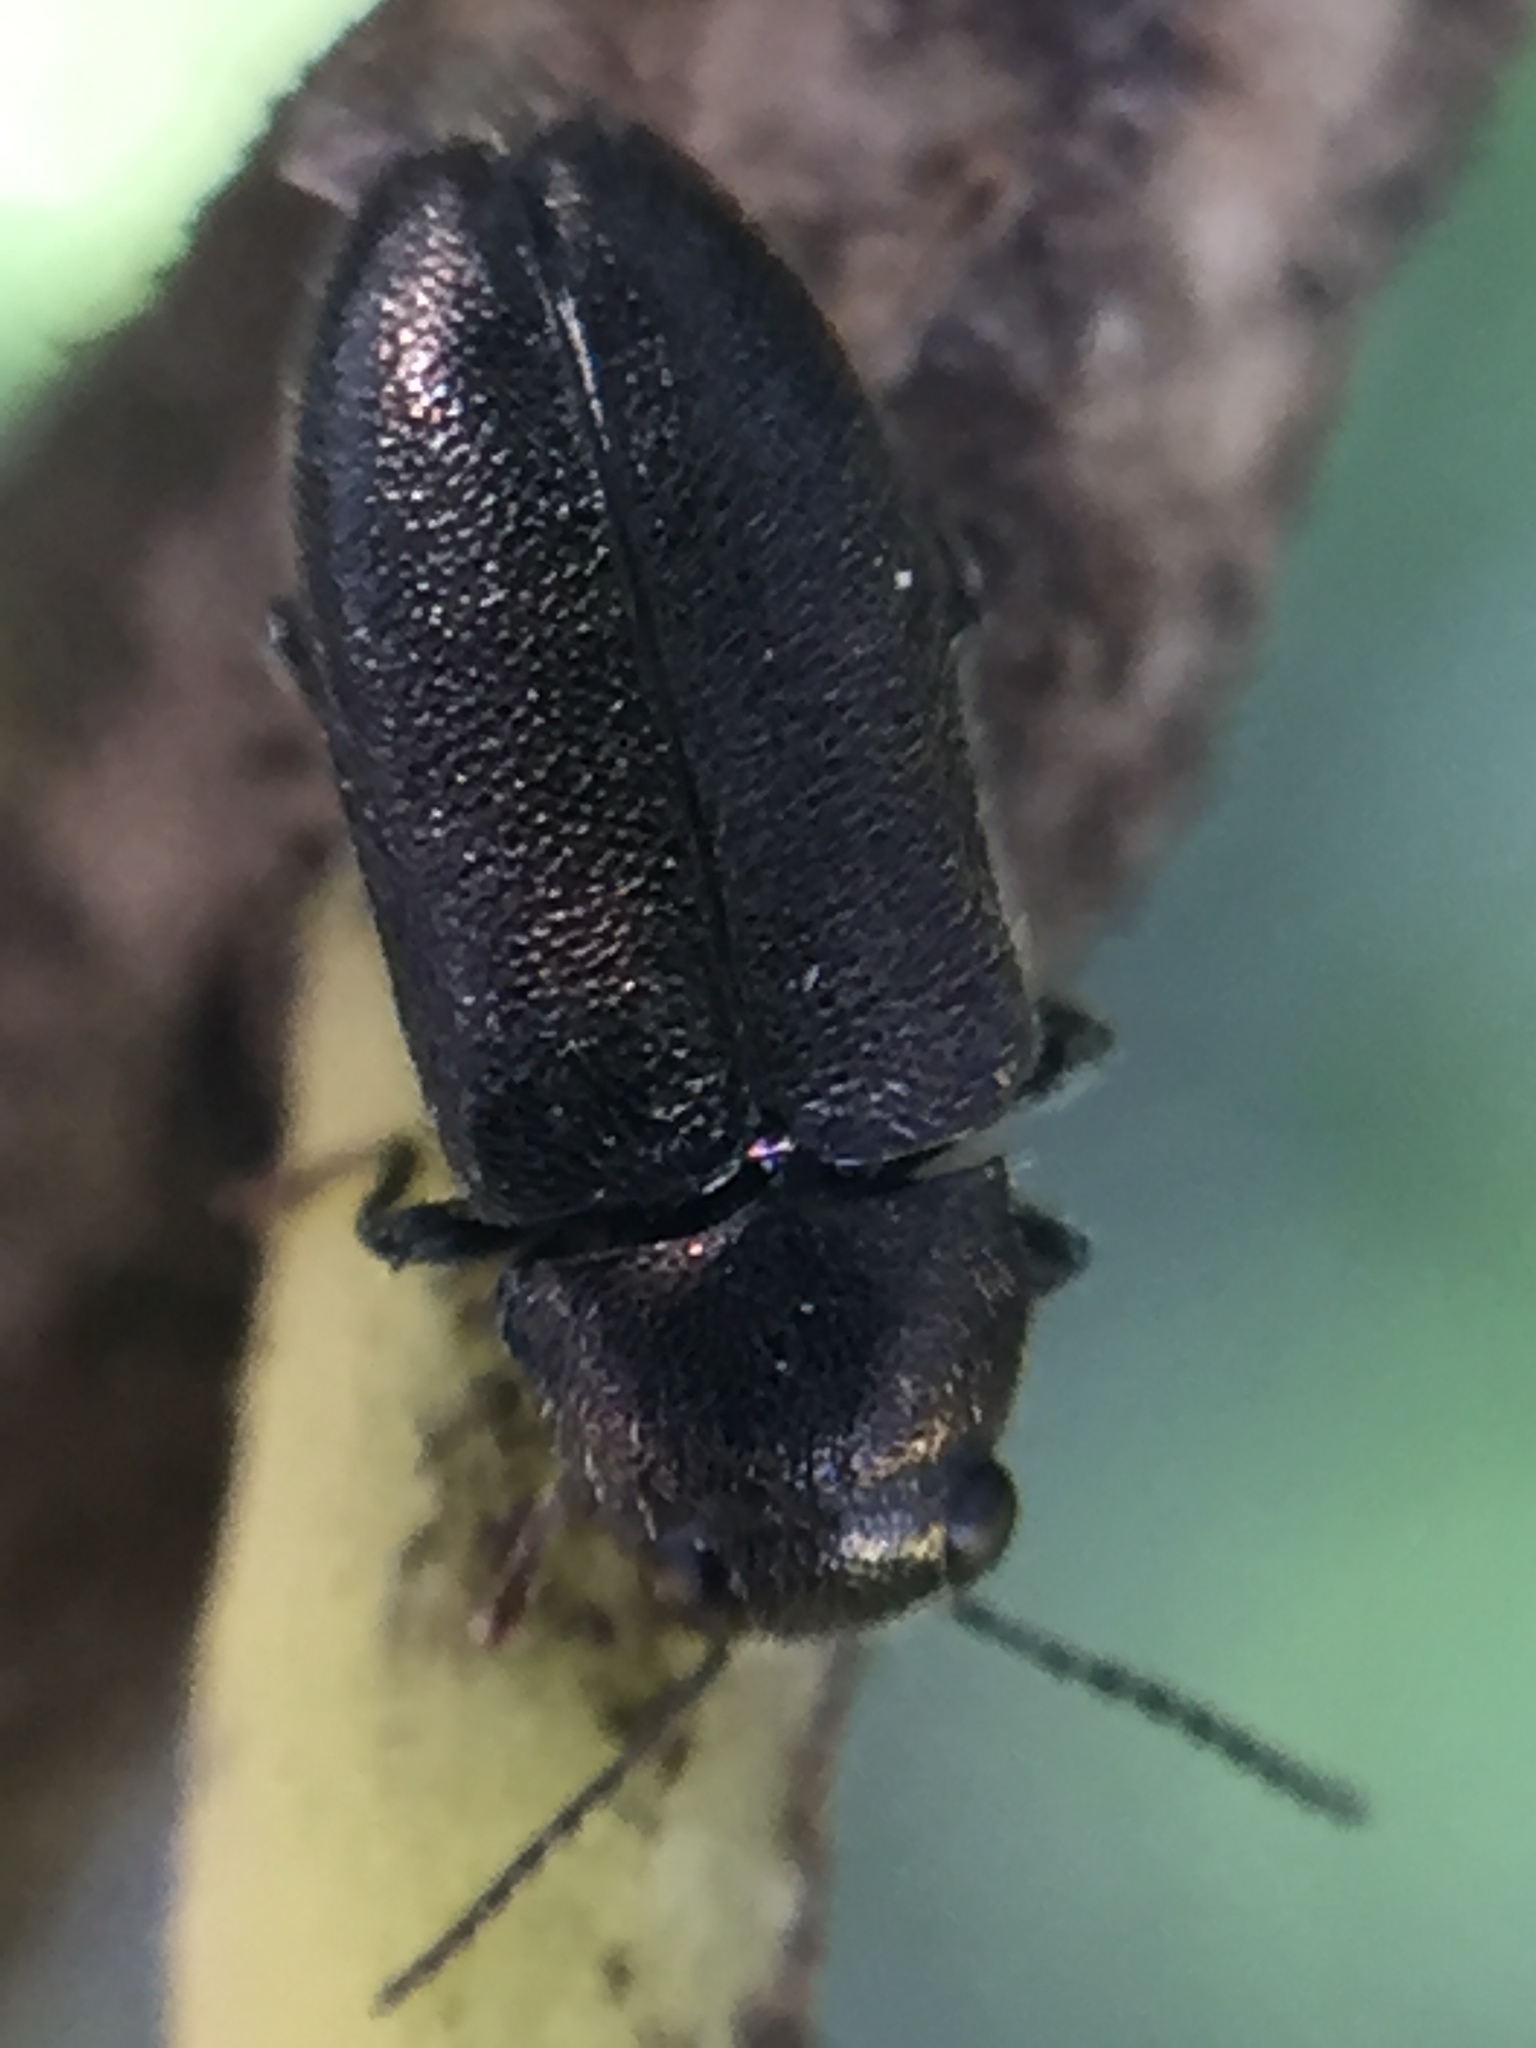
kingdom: Animalia
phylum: Arthropoda
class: Insecta
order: Coleoptera
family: Buprestidae
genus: Maoraxia
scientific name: Maoraxia eremita
